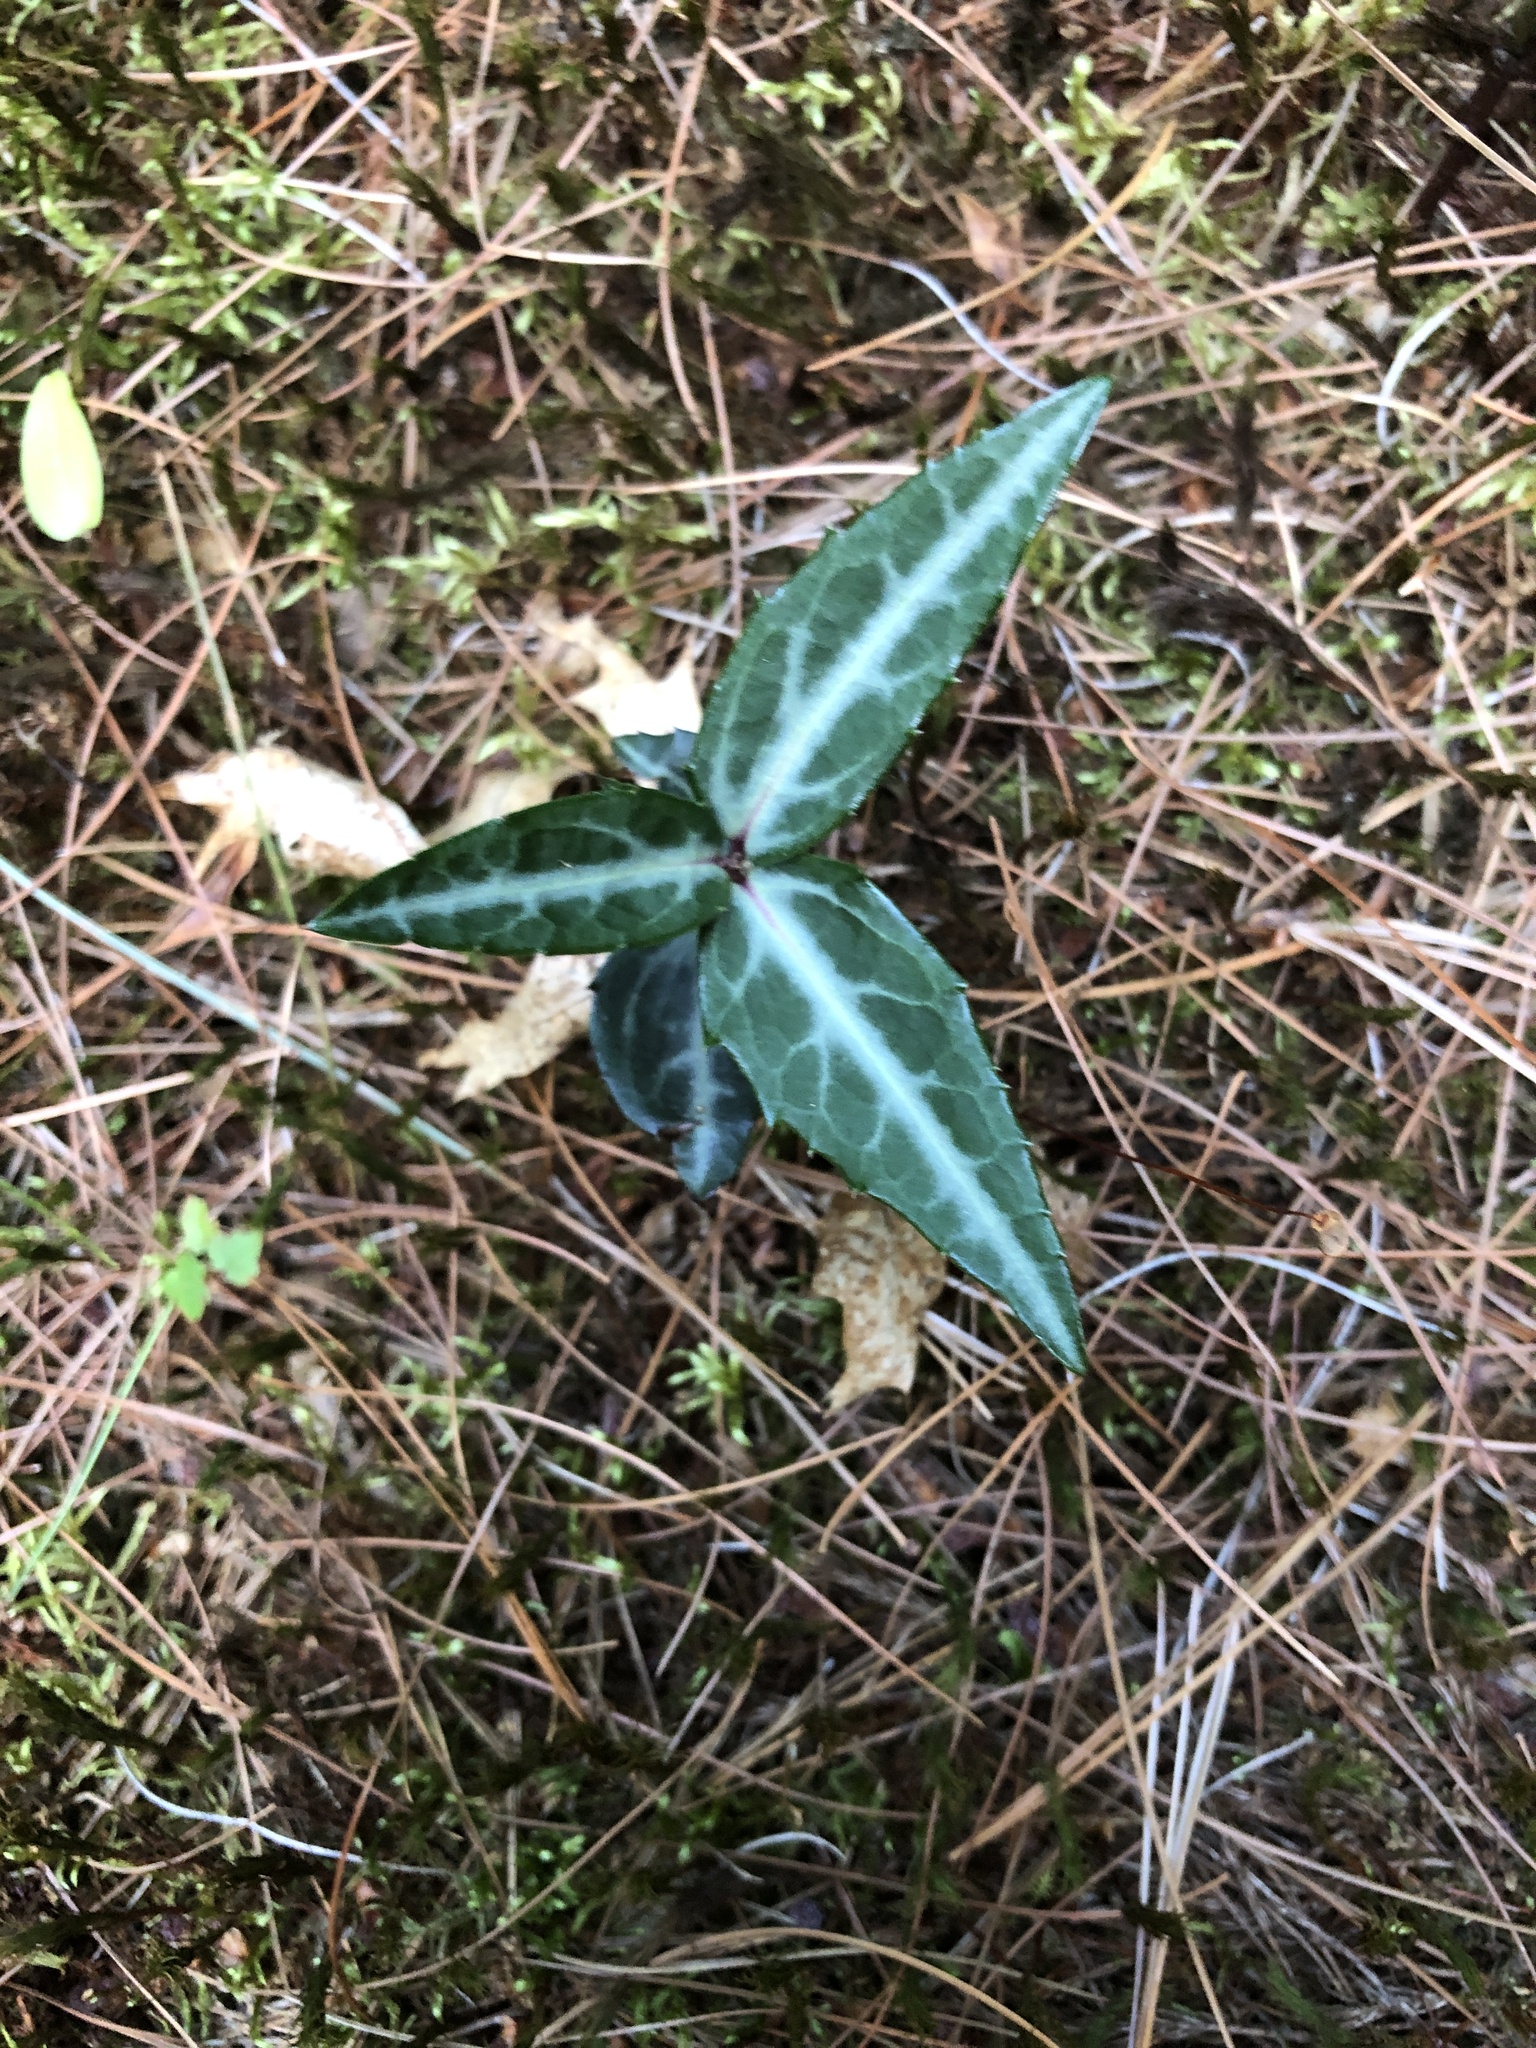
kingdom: Plantae
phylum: Tracheophyta
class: Magnoliopsida
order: Ericales
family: Ericaceae
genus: Chimaphila
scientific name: Chimaphila maculata
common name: Spotted pipsissewa
